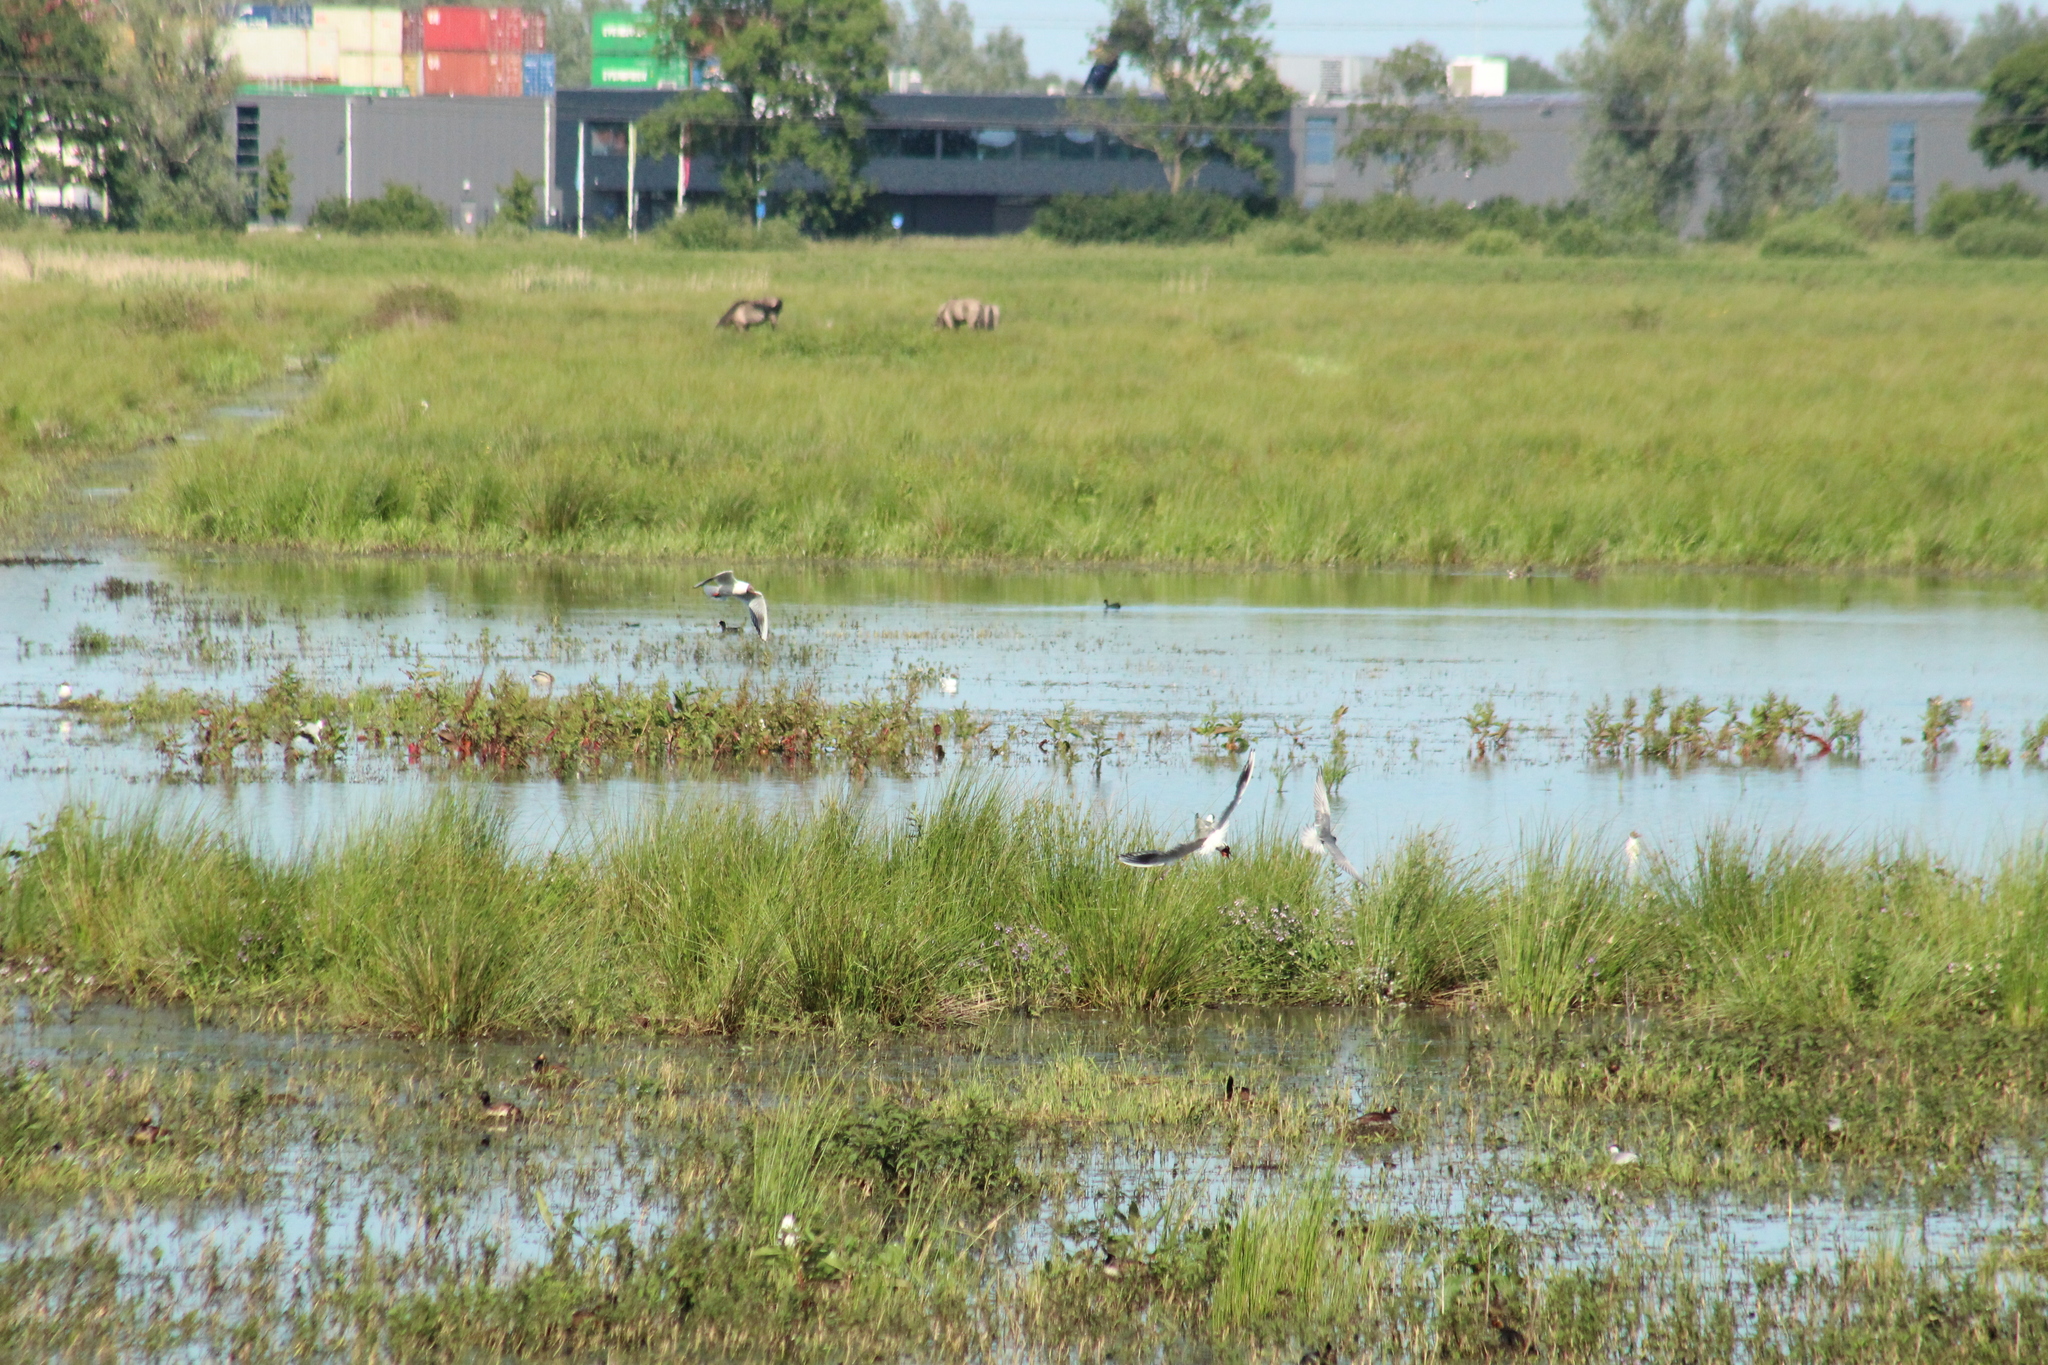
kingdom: Animalia
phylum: Chordata
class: Aves
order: Charadriiformes
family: Laridae
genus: Chroicocephalus
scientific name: Chroicocephalus ridibundus
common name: Black-headed gull
